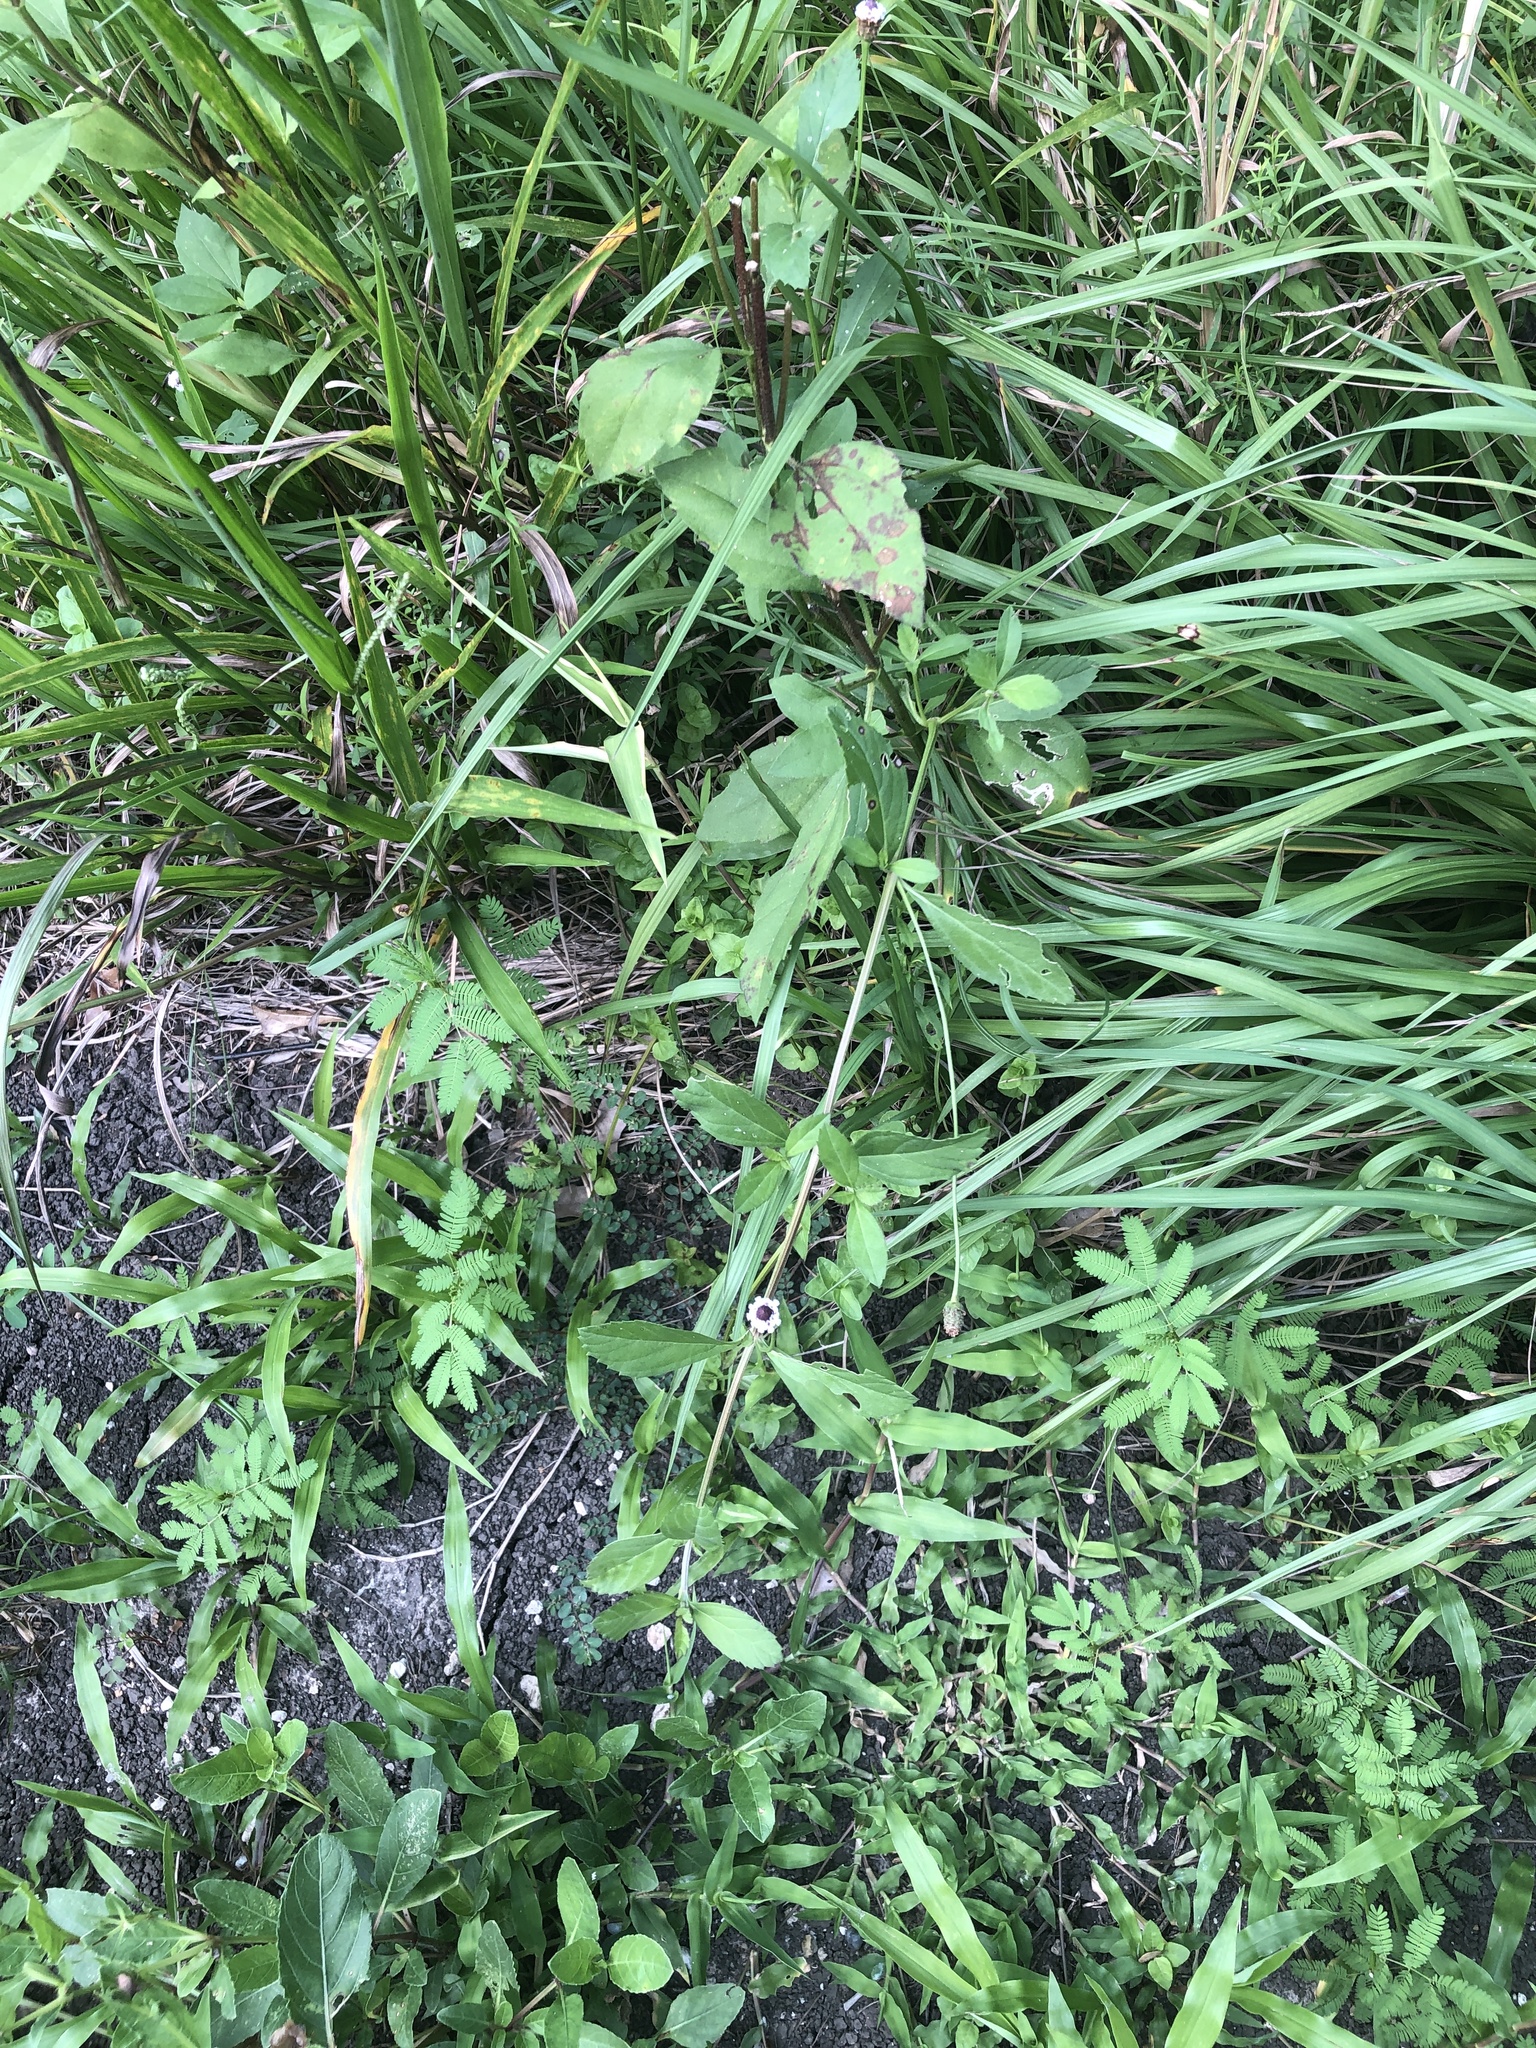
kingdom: Plantae
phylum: Tracheophyta
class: Magnoliopsida
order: Lamiales
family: Verbenaceae
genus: Phyla
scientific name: Phyla lanceolata
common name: Northern fogfruit
